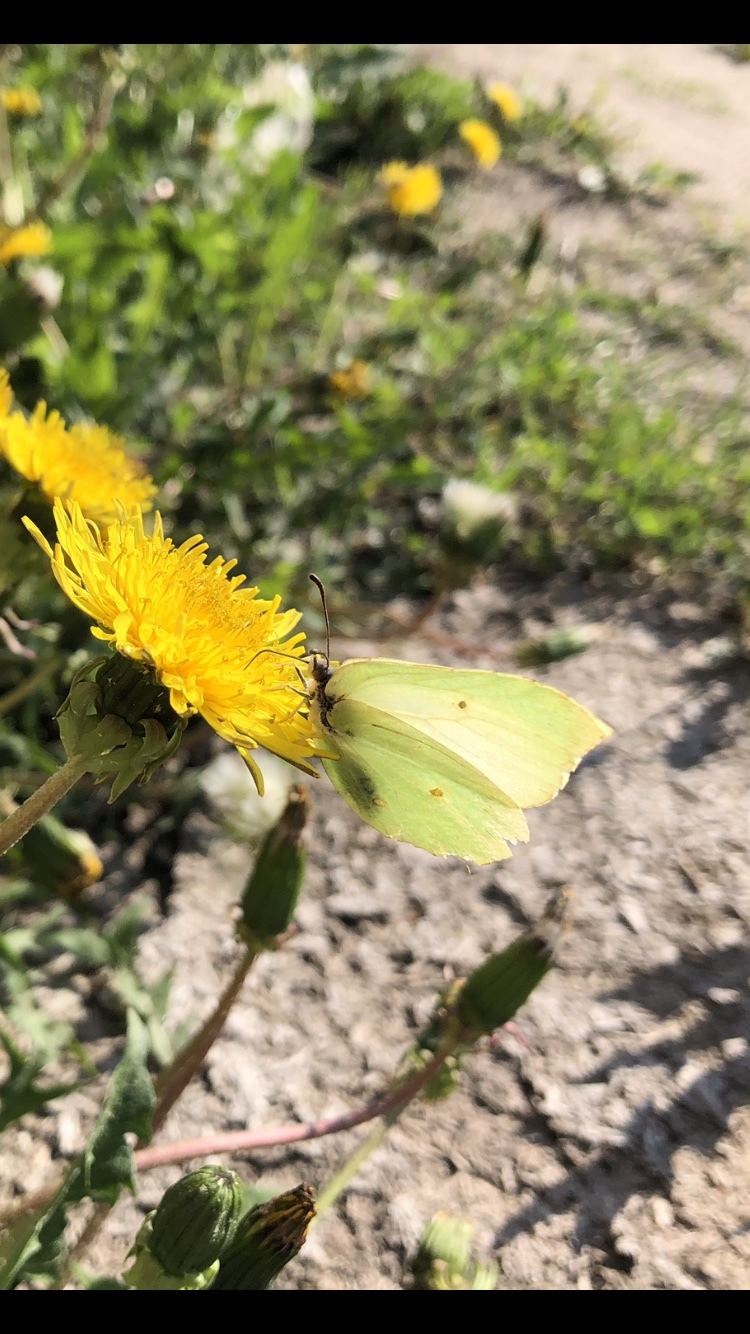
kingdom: Animalia
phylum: Arthropoda
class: Insecta
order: Lepidoptera
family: Pieridae
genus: Gonepteryx
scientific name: Gonepteryx rhamni
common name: Brimstone
